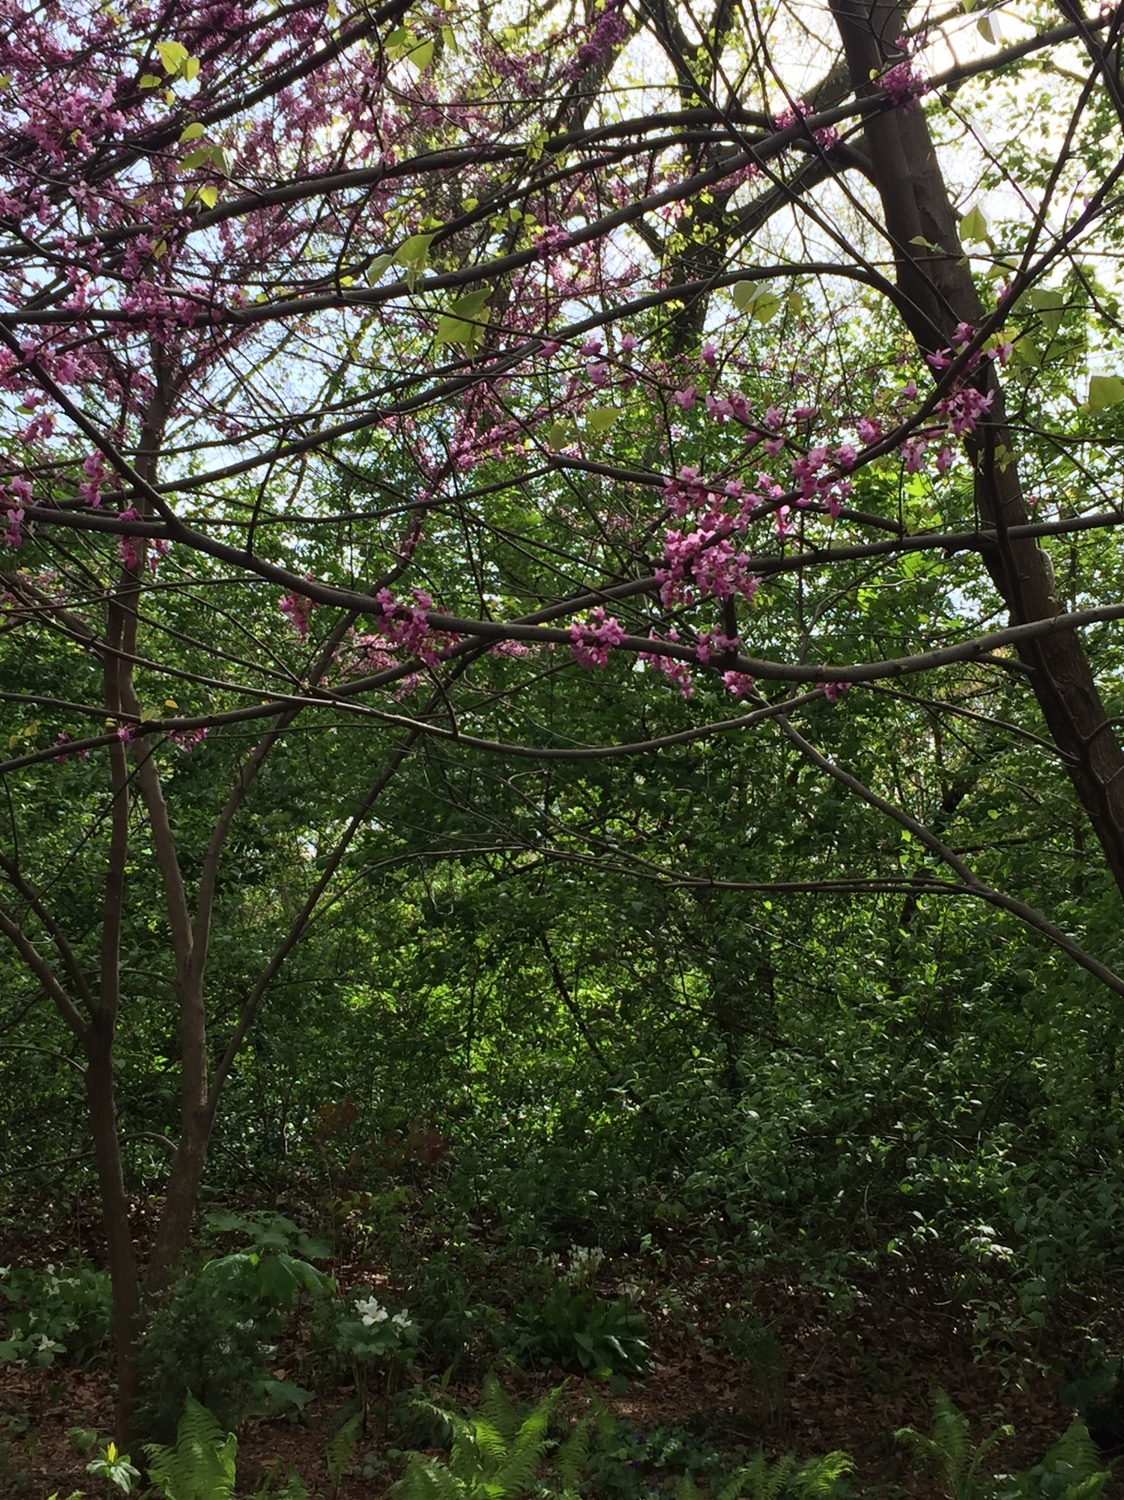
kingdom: Plantae
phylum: Tracheophyta
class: Magnoliopsida
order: Fabales
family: Fabaceae
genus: Cercis
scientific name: Cercis canadensis
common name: Eastern redbud
